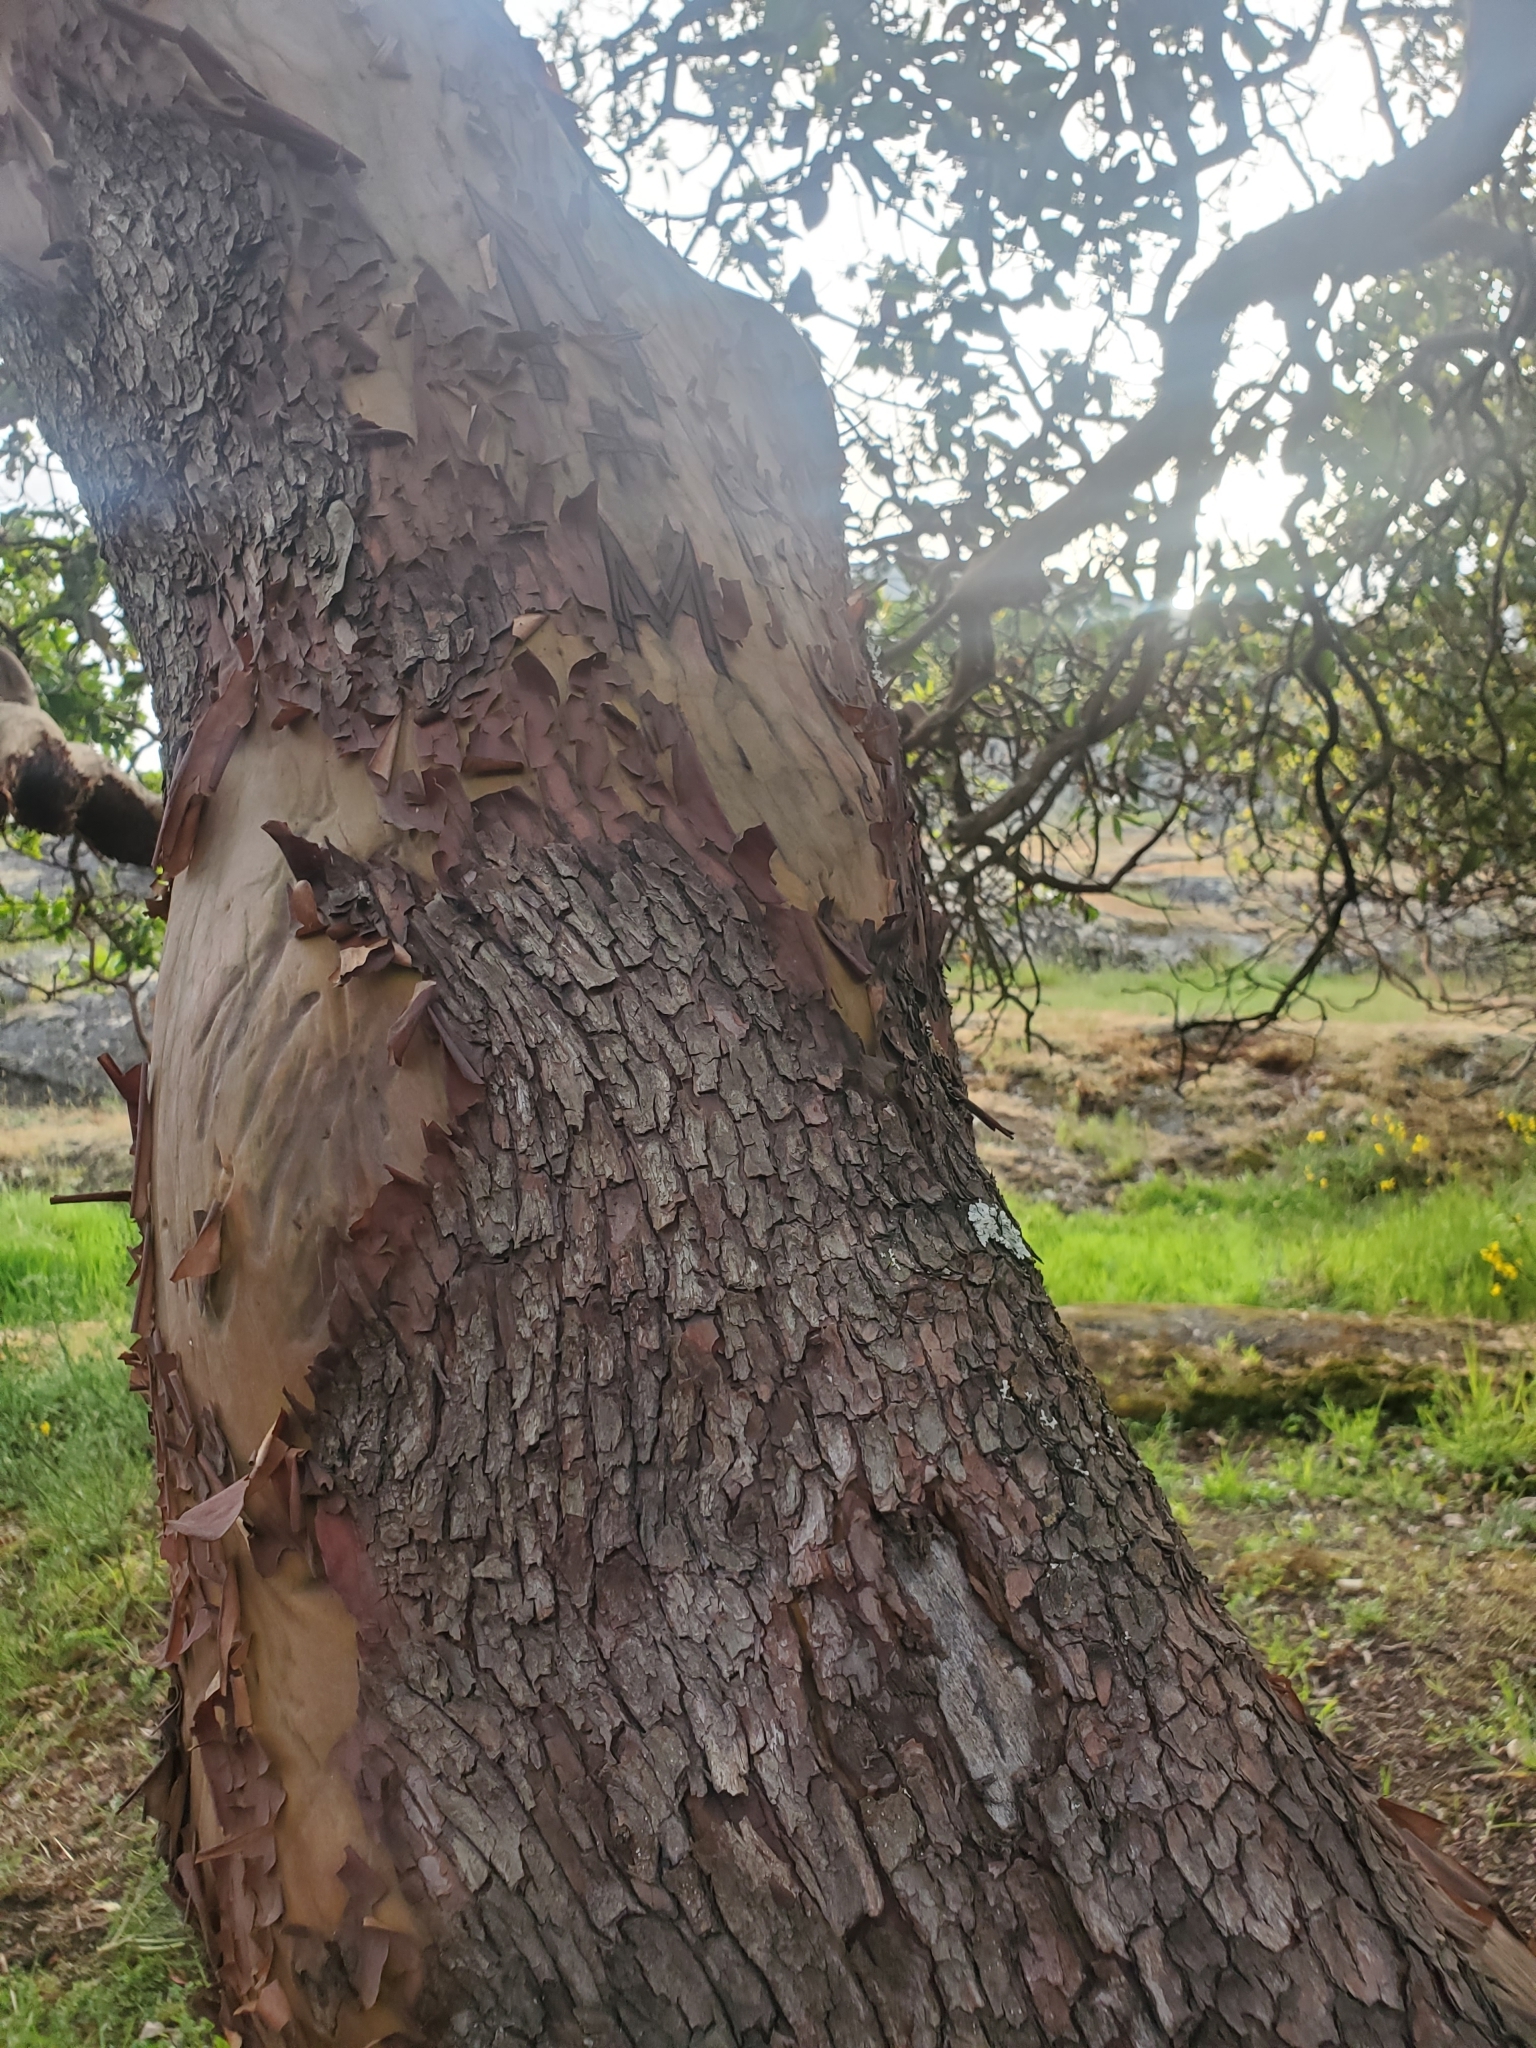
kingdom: Plantae
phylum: Tracheophyta
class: Magnoliopsida
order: Ericales
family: Ericaceae
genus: Arbutus
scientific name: Arbutus menziesii
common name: Pacific madrone
